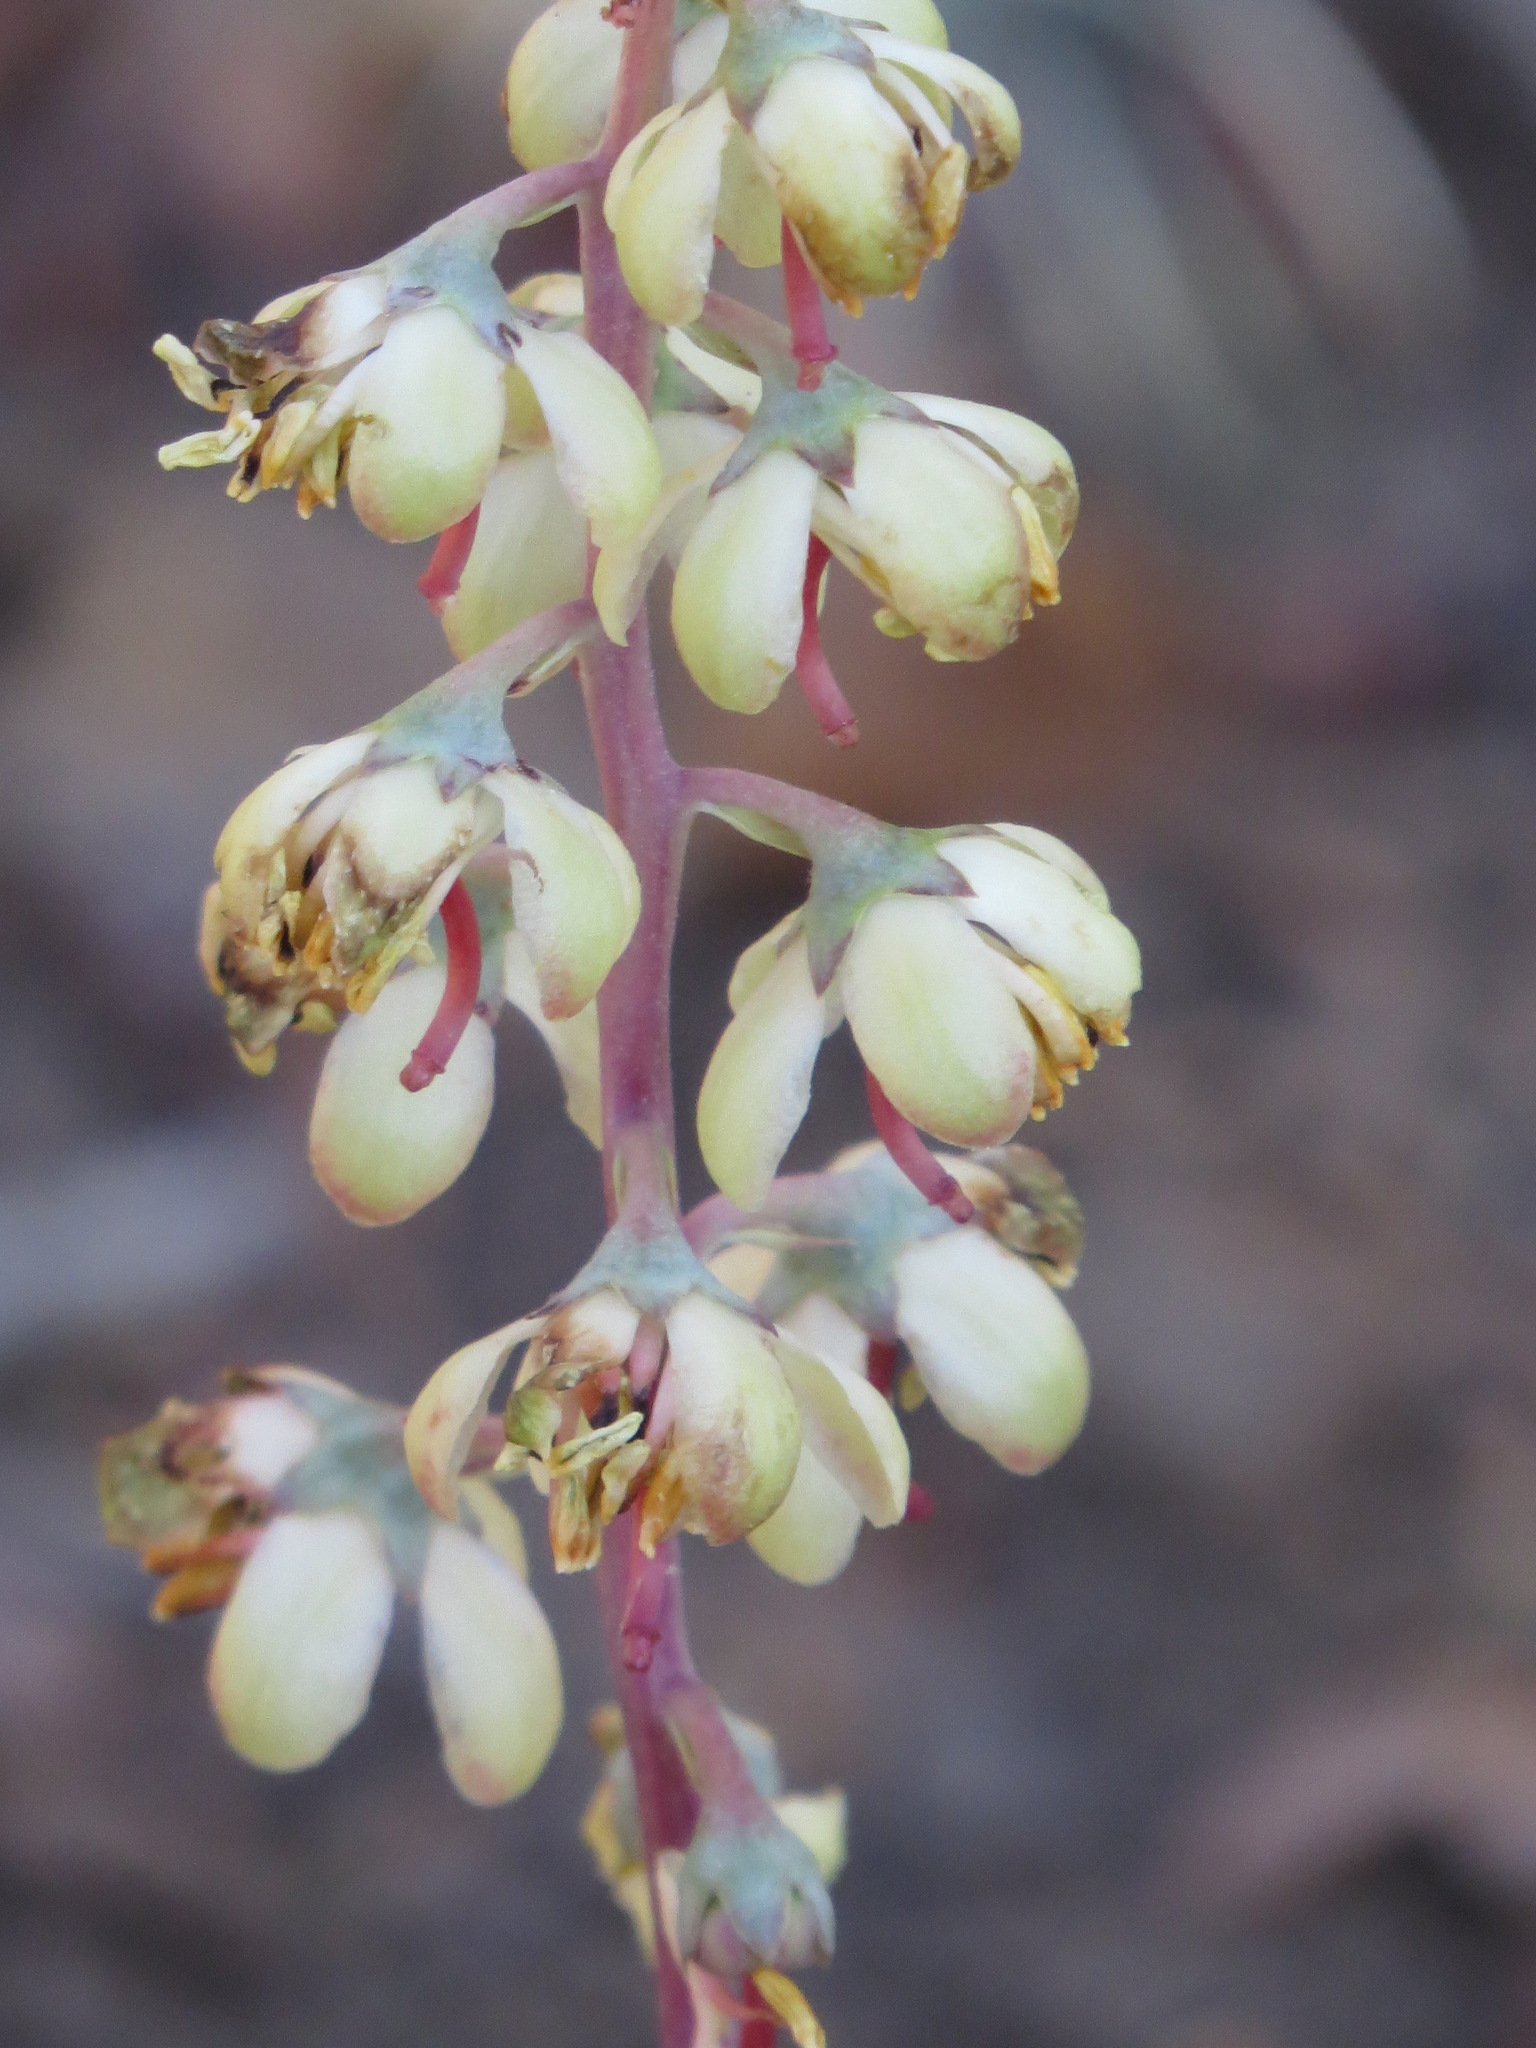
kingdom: Plantae
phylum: Tracheophyta
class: Magnoliopsida
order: Ericales
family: Ericaceae
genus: Pyrola
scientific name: Pyrola dentata
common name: Tooth-leaved wintergreen
